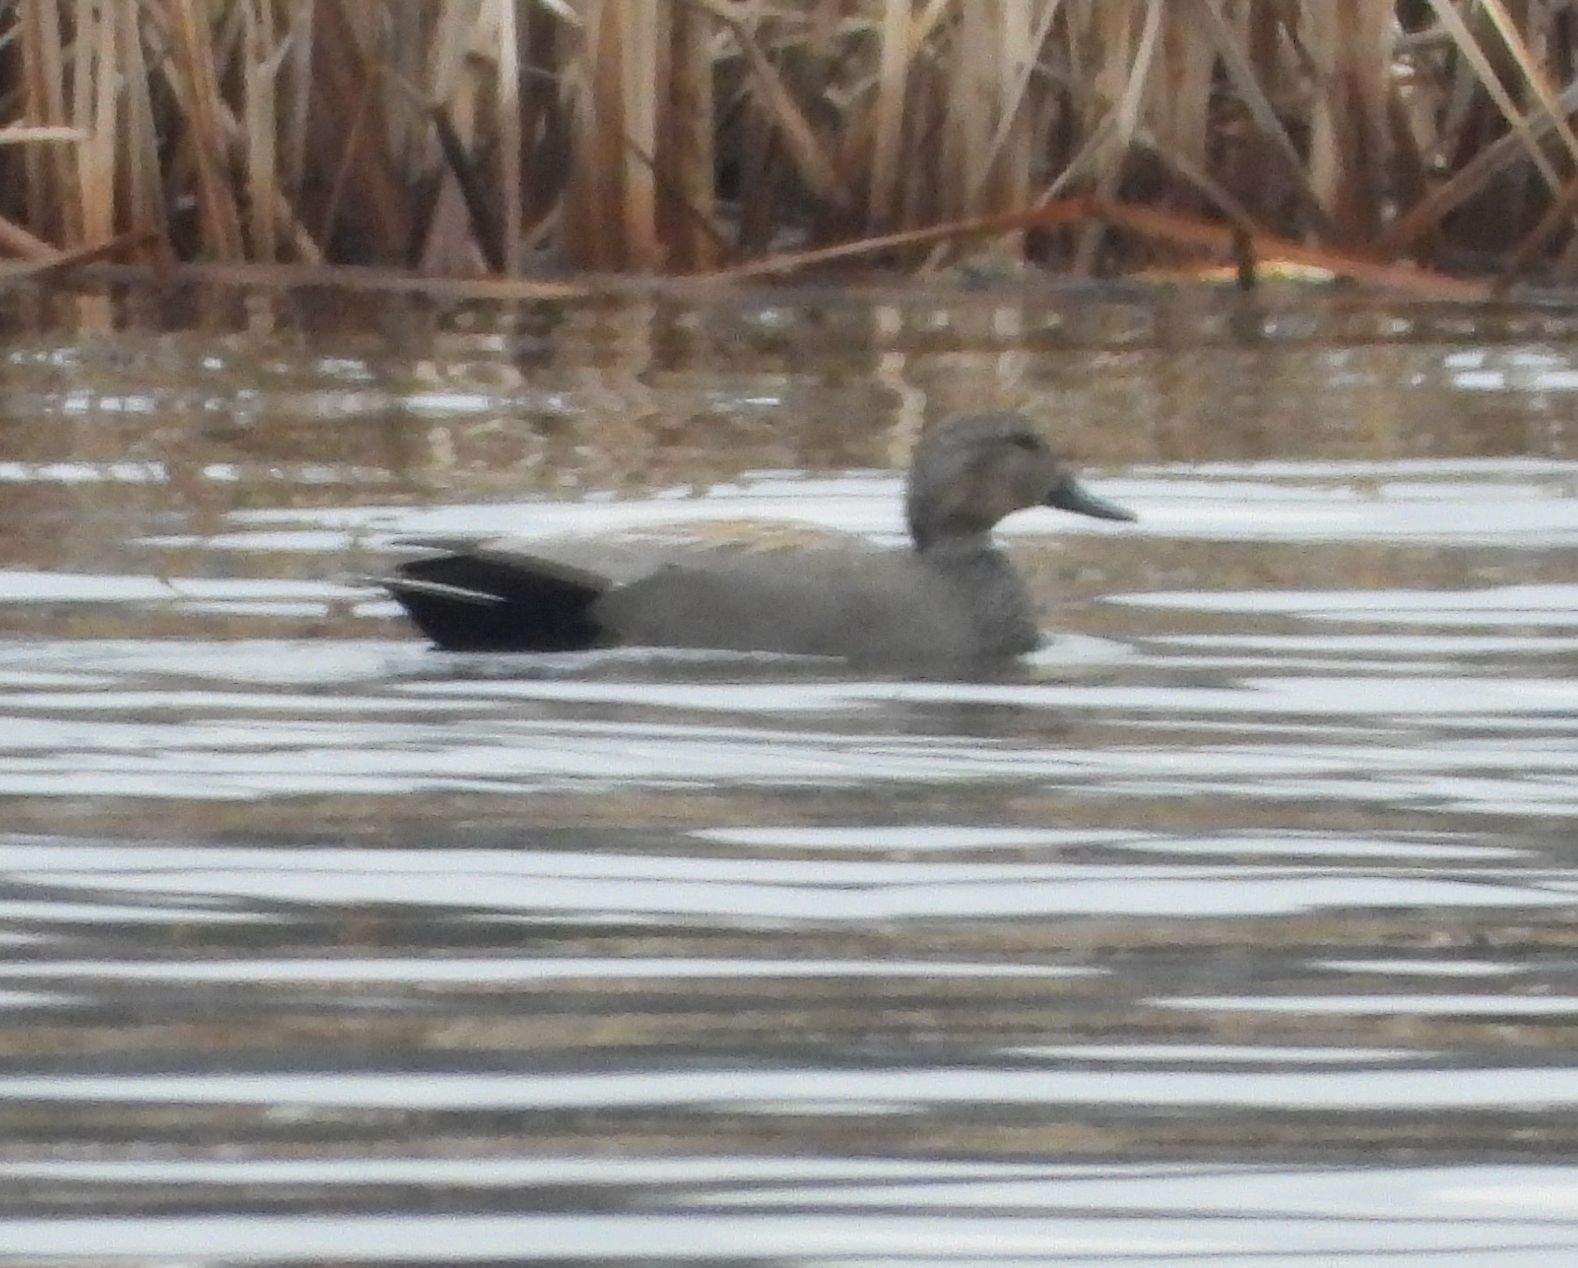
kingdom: Animalia
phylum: Chordata
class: Aves
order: Anseriformes
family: Anatidae
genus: Mareca
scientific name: Mareca strepera
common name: Gadwall
